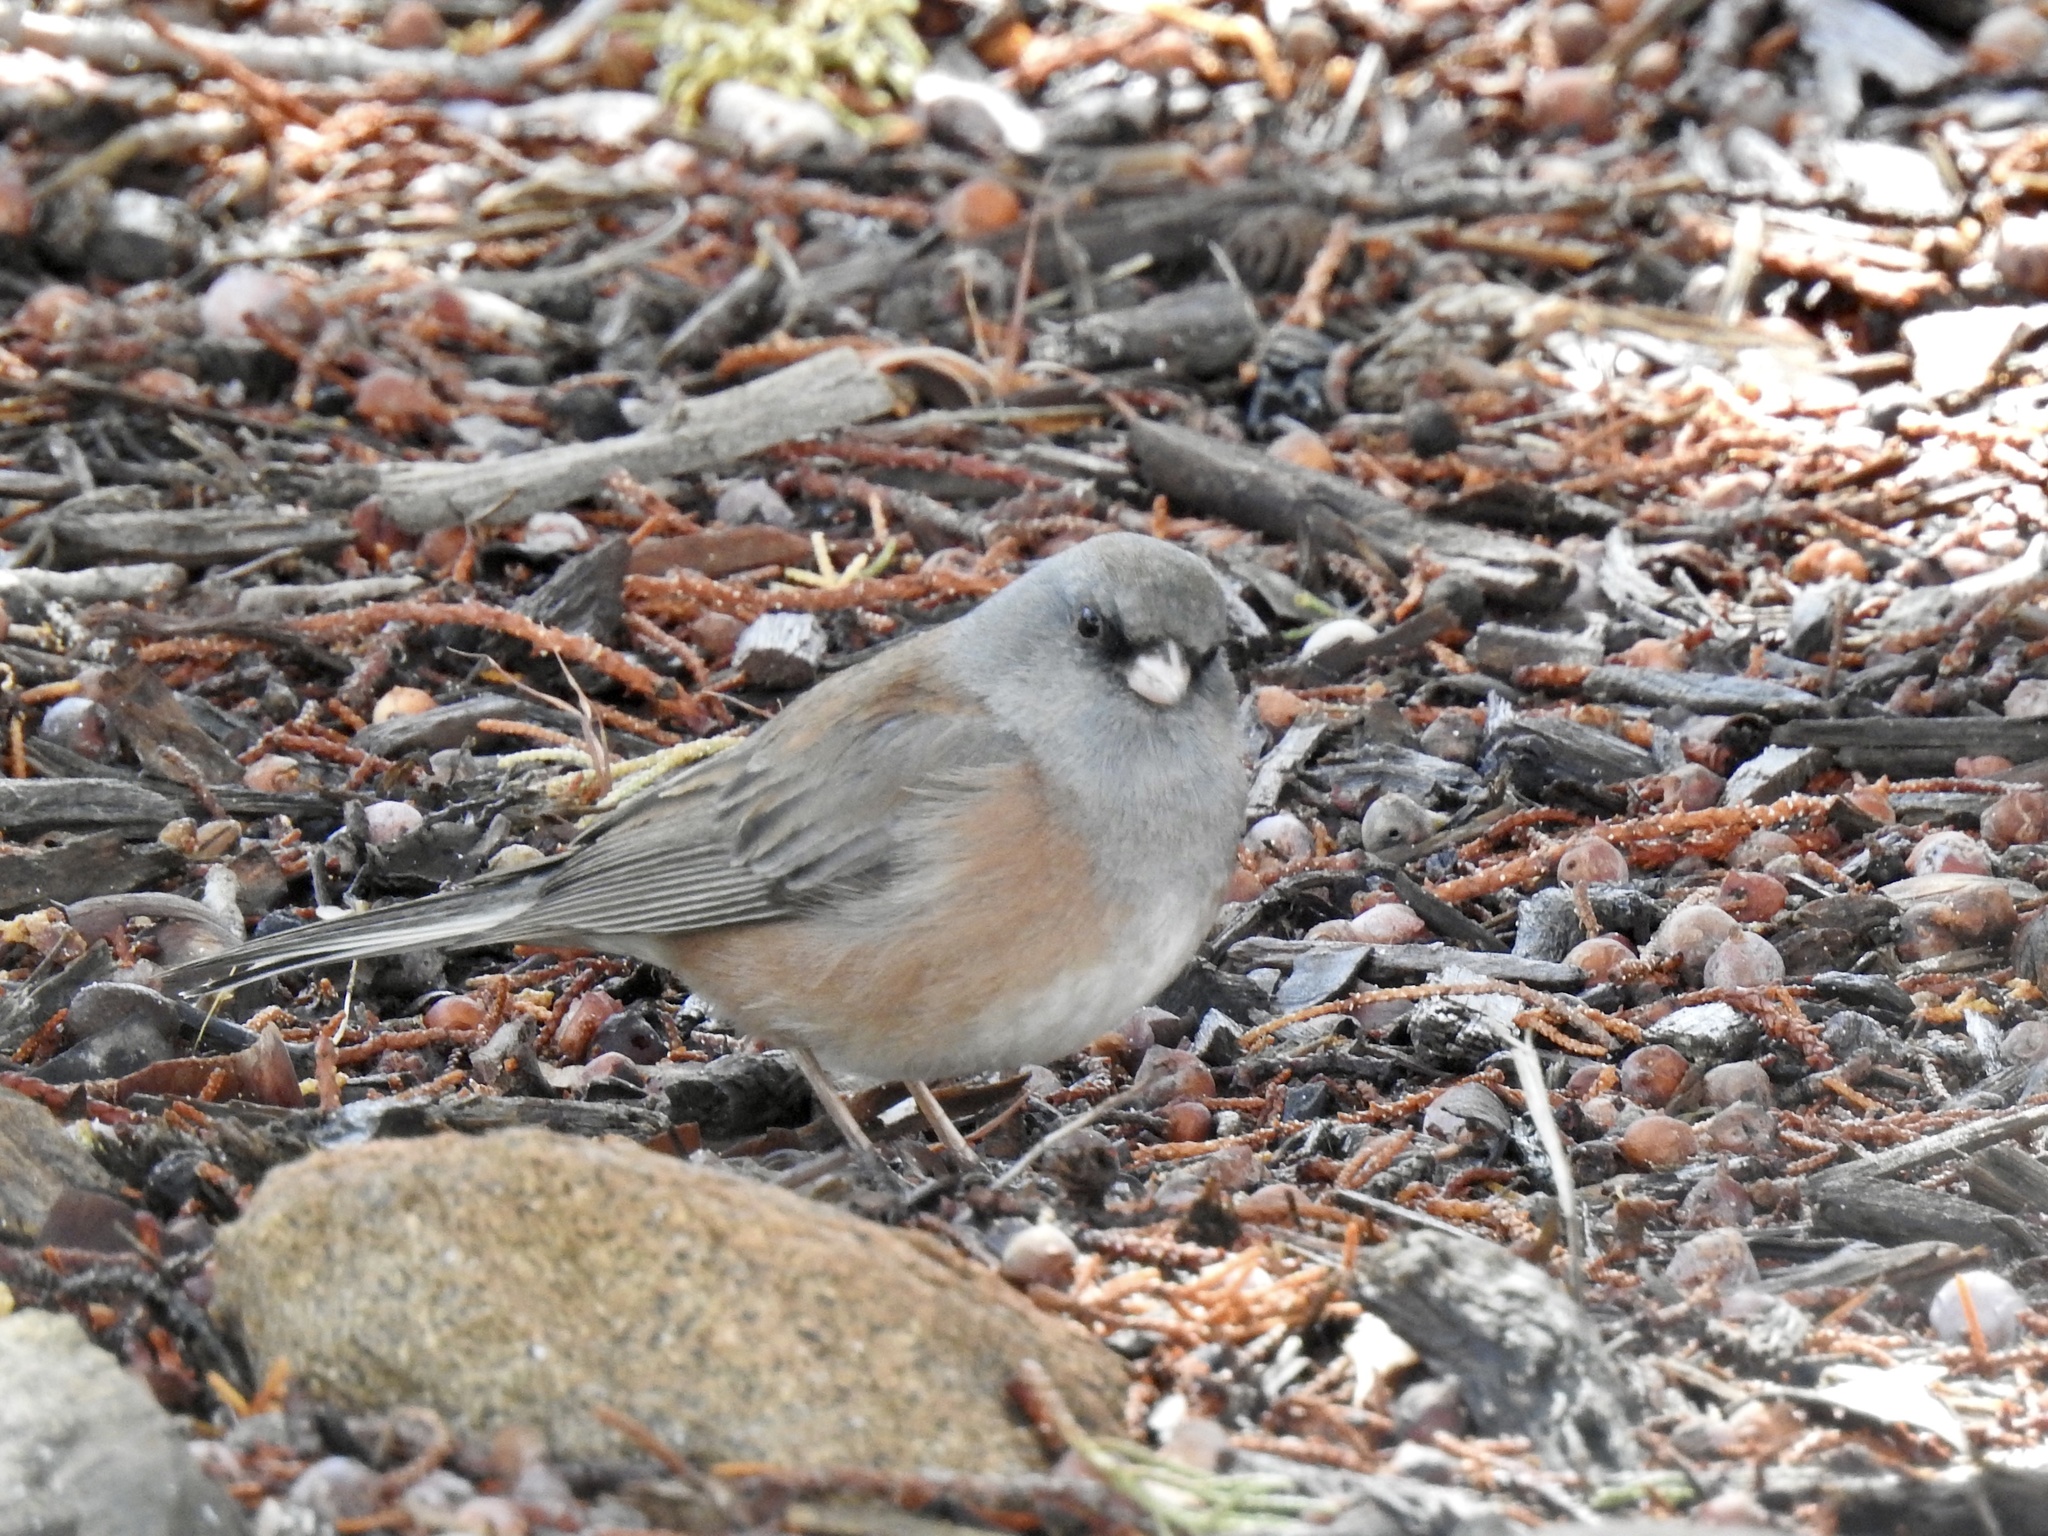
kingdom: Animalia
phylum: Chordata
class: Aves
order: Passeriformes
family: Passerellidae
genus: Junco
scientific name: Junco hyemalis
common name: Dark-eyed junco
